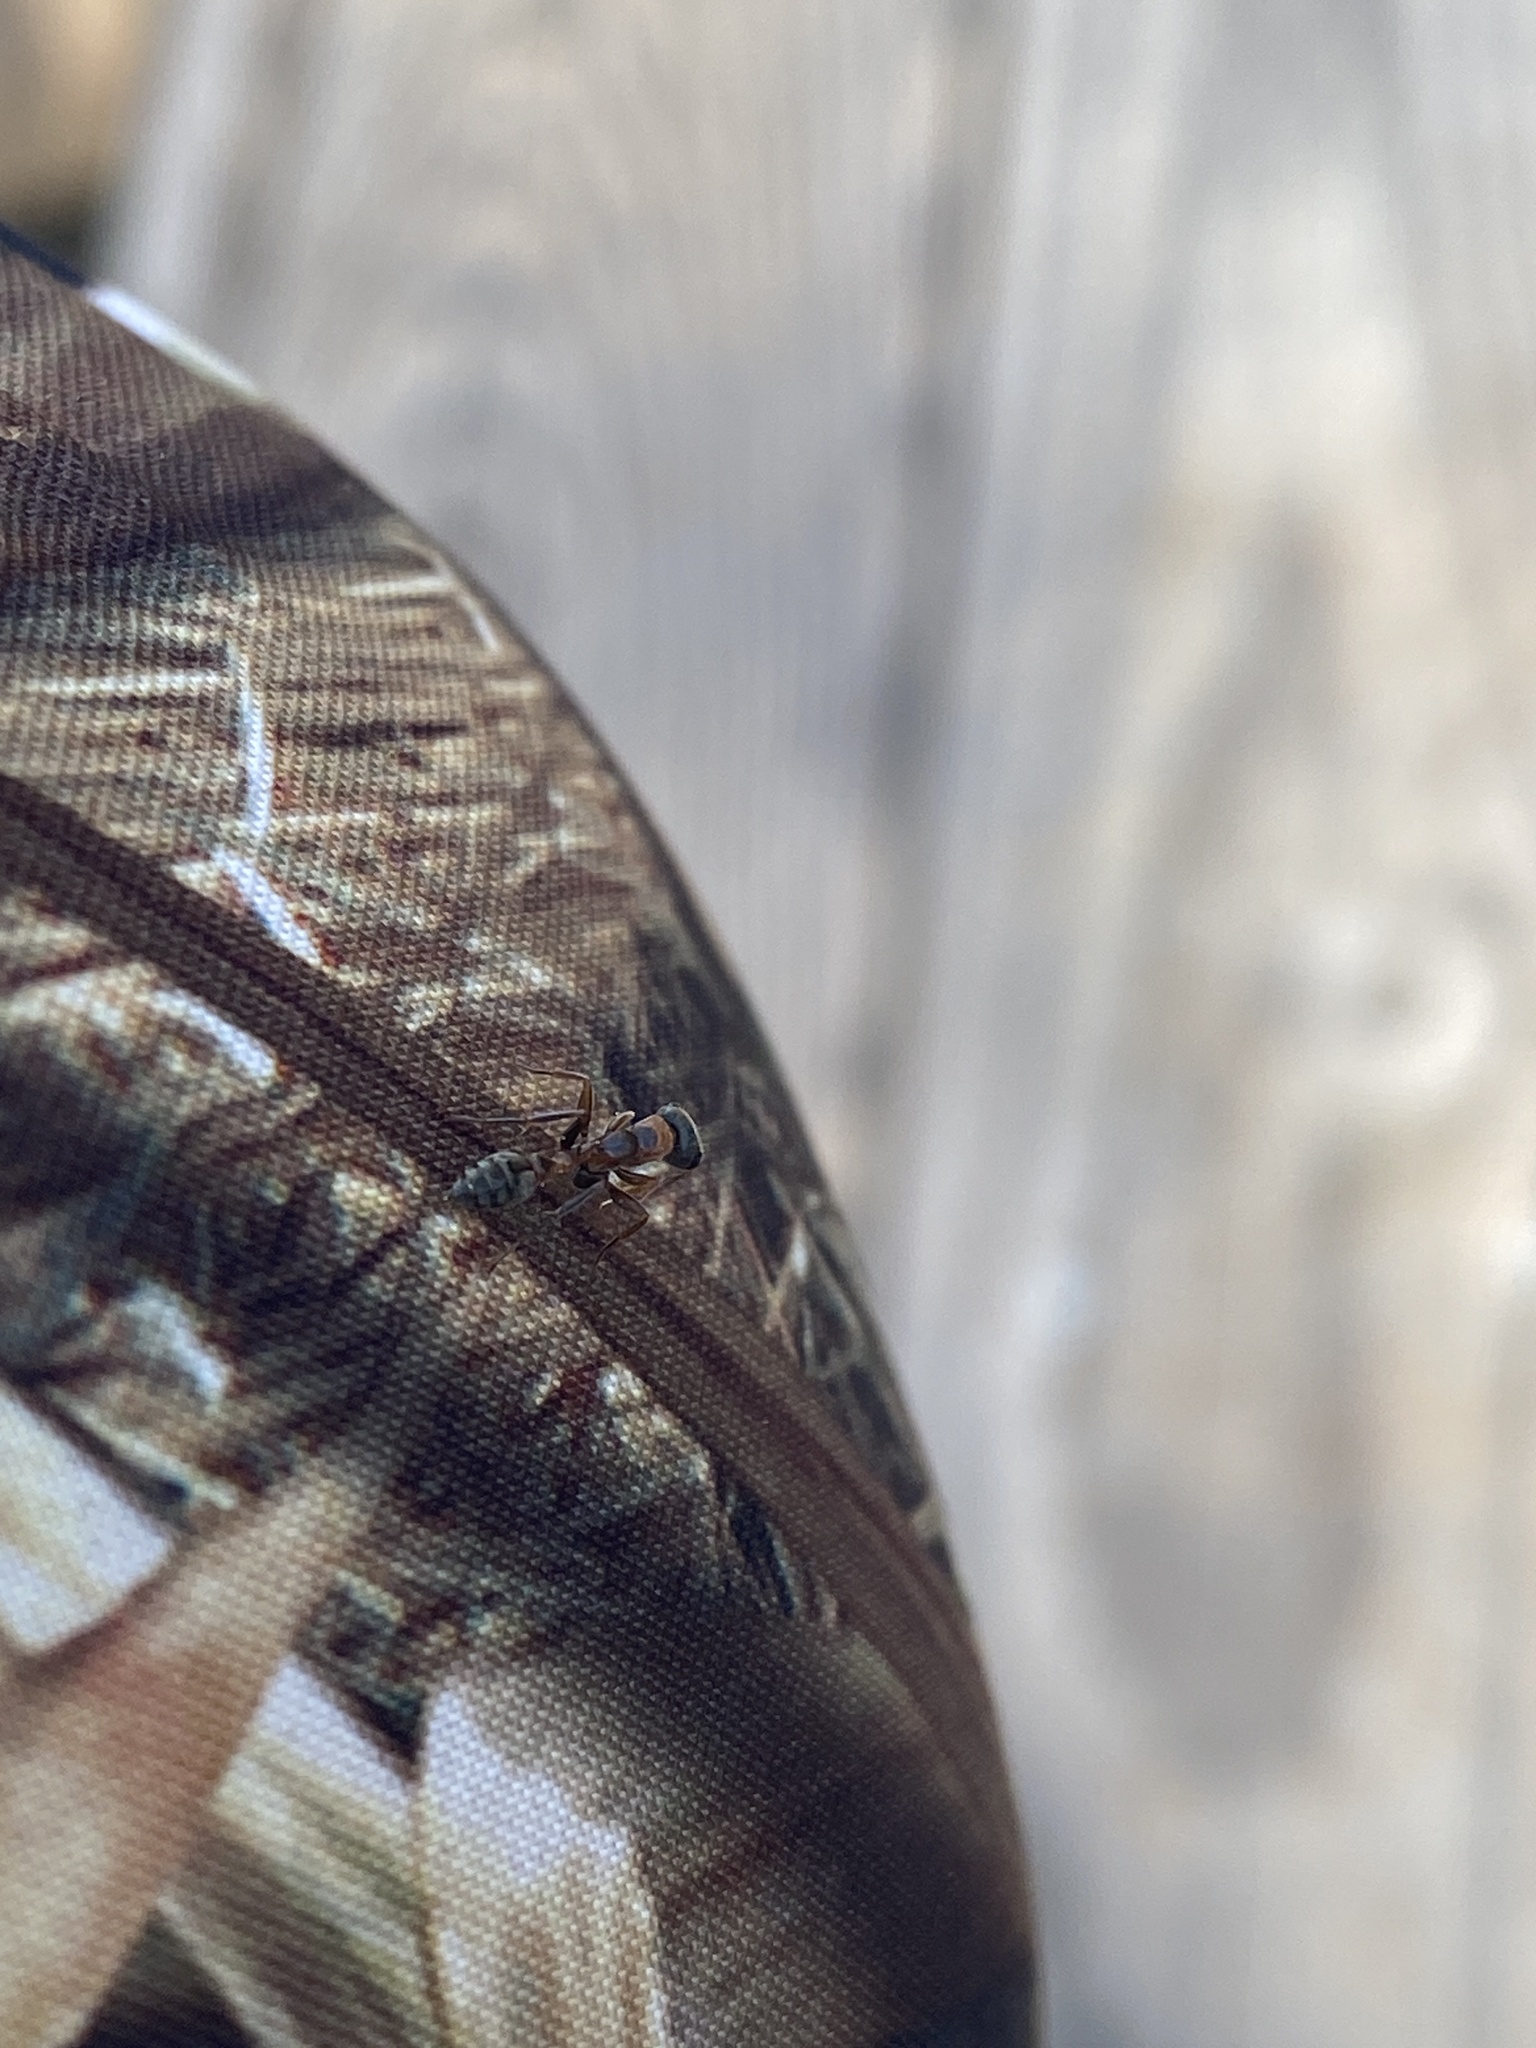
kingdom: Animalia
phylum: Arthropoda
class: Insecta
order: Hymenoptera
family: Formicidae
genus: Pseudomyrmex
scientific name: Pseudomyrmex gracilis
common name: Graceful twig ant
